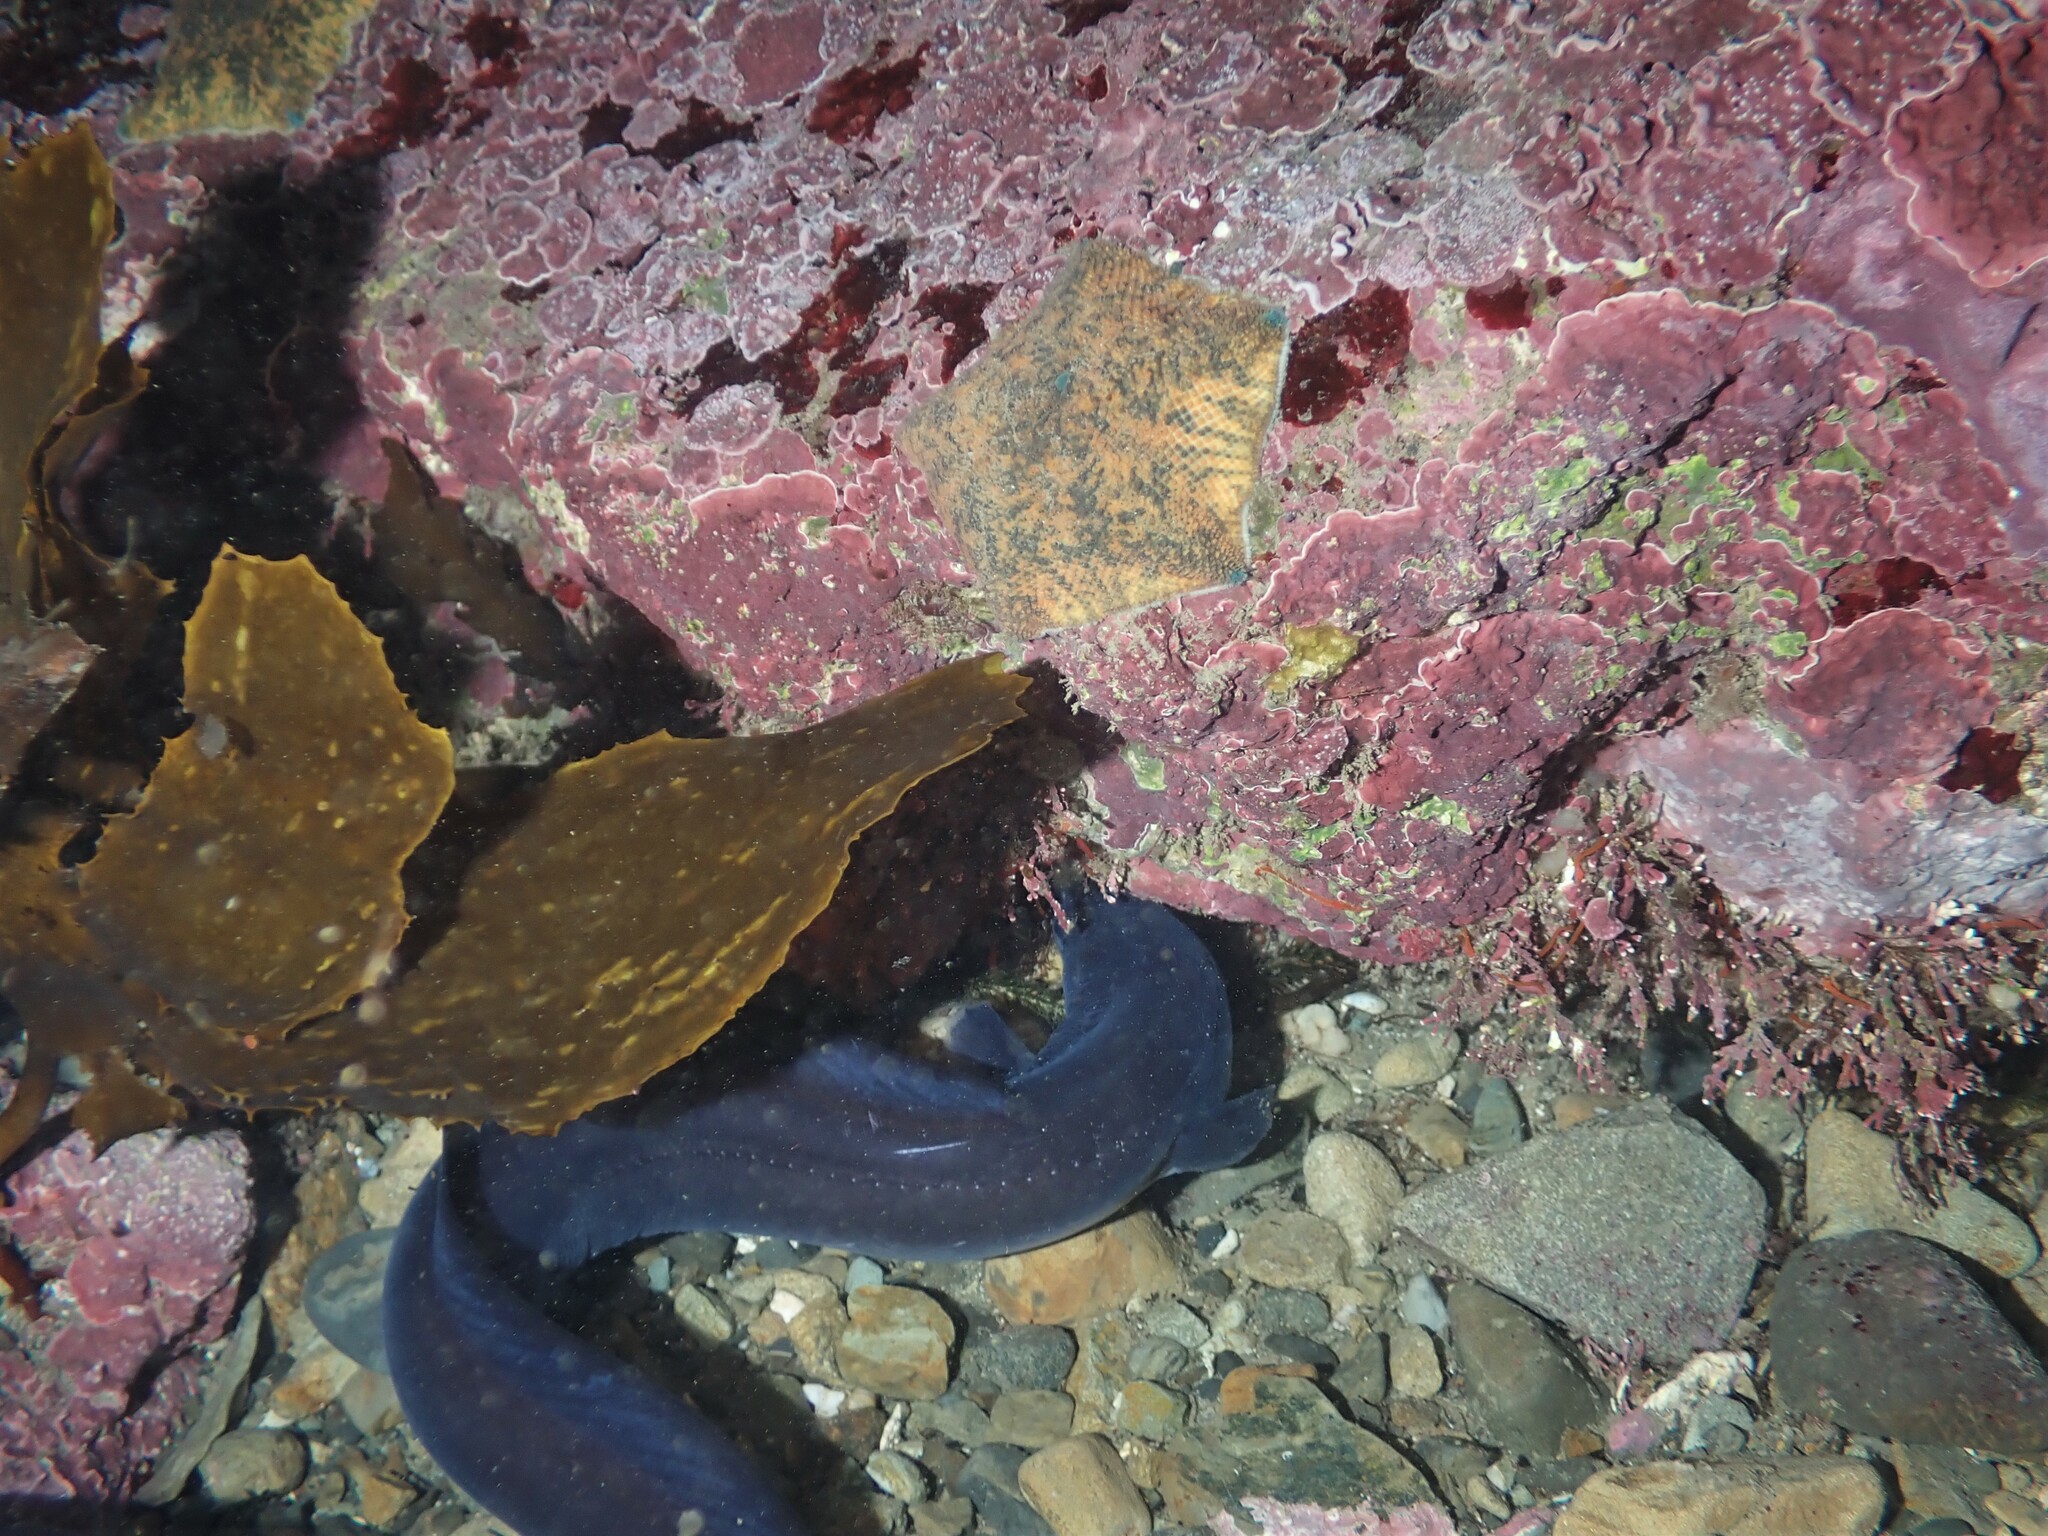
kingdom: Animalia
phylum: Chordata
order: Anguilliformes
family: Congridae
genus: Conger
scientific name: Conger verreauxi
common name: Conger eel
